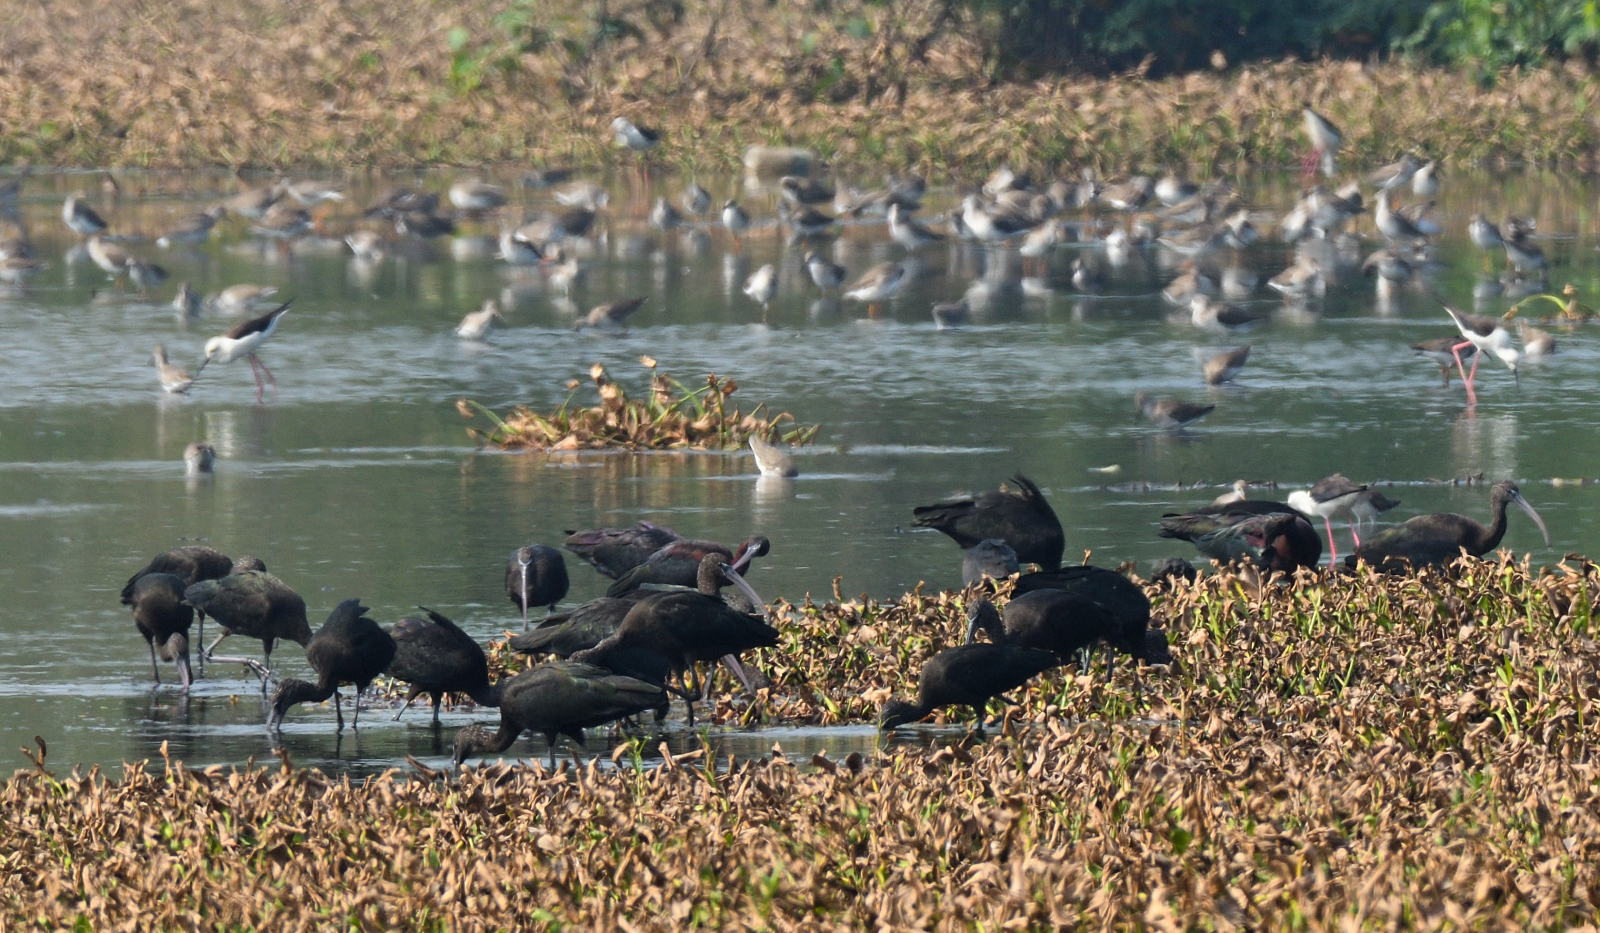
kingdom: Animalia
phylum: Chordata
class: Aves
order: Pelecaniformes
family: Threskiornithidae
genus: Plegadis
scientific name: Plegadis falcinellus
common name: Glossy ibis
